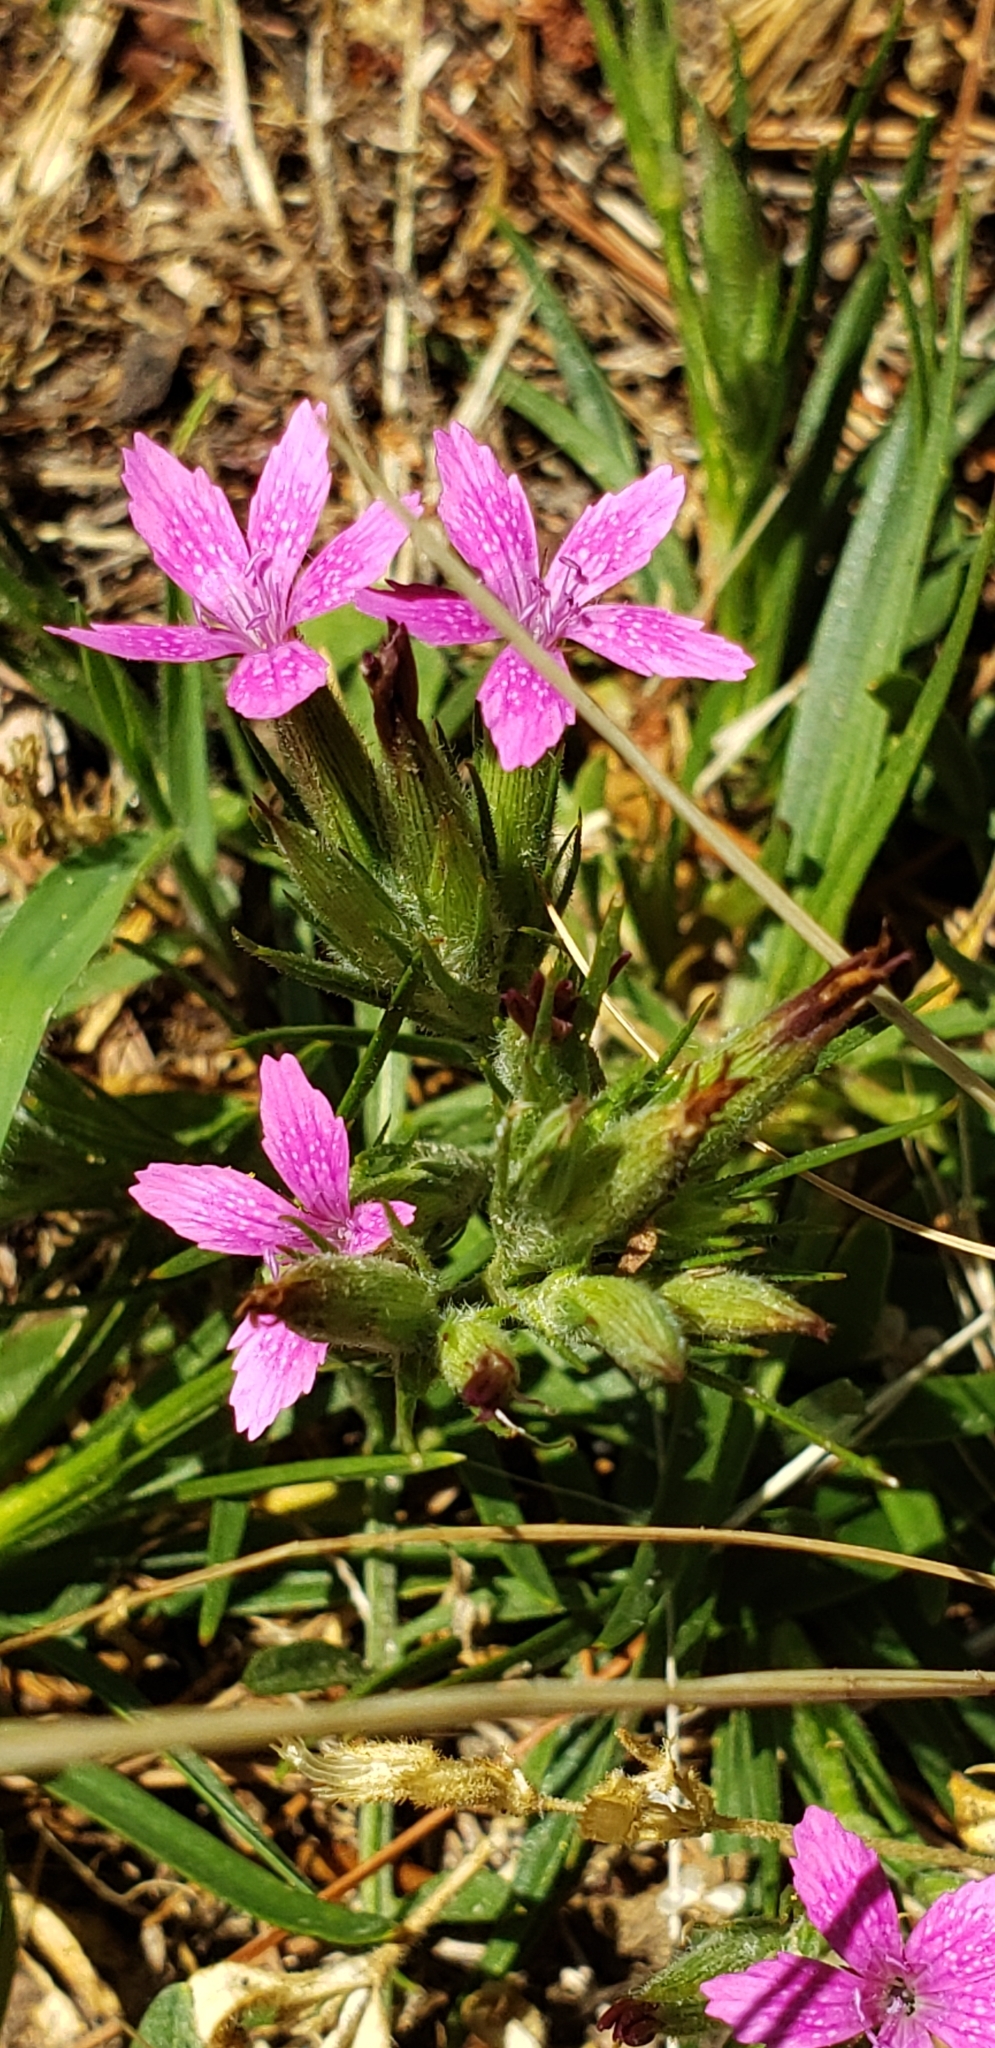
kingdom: Plantae
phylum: Tracheophyta
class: Magnoliopsida
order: Caryophyllales
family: Caryophyllaceae
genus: Dianthus
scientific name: Dianthus armeria
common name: Deptford pink
